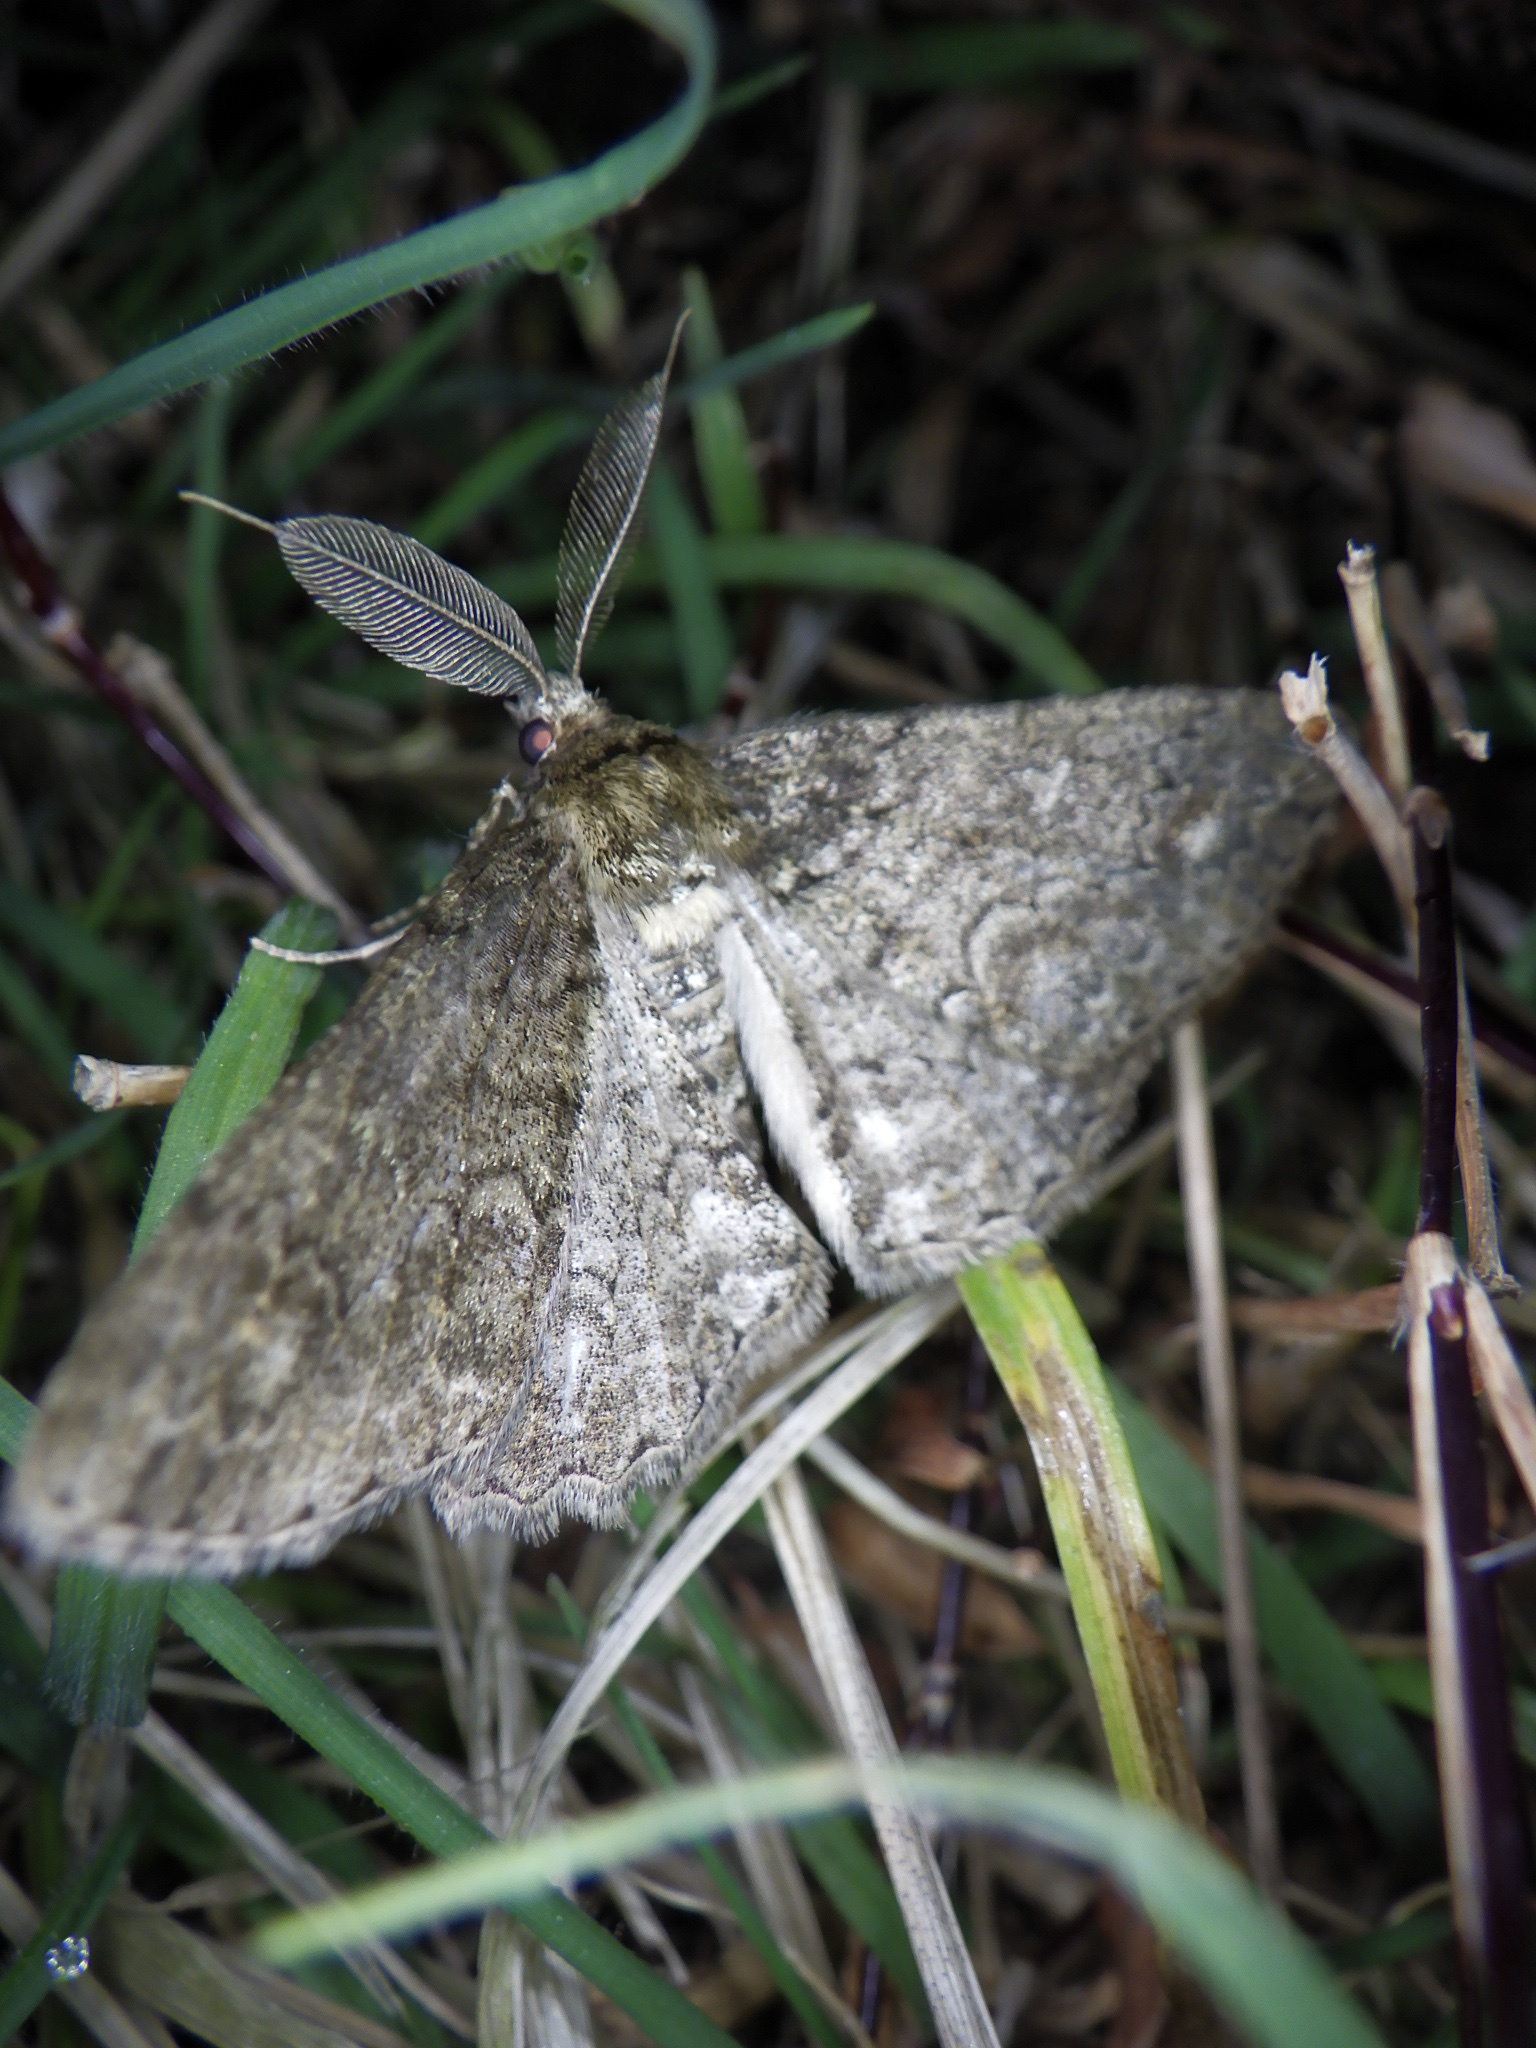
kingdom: Animalia
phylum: Arthropoda
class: Insecta
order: Lepidoptera
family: Geometridae
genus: Cleora
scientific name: Cleora leucophaea
